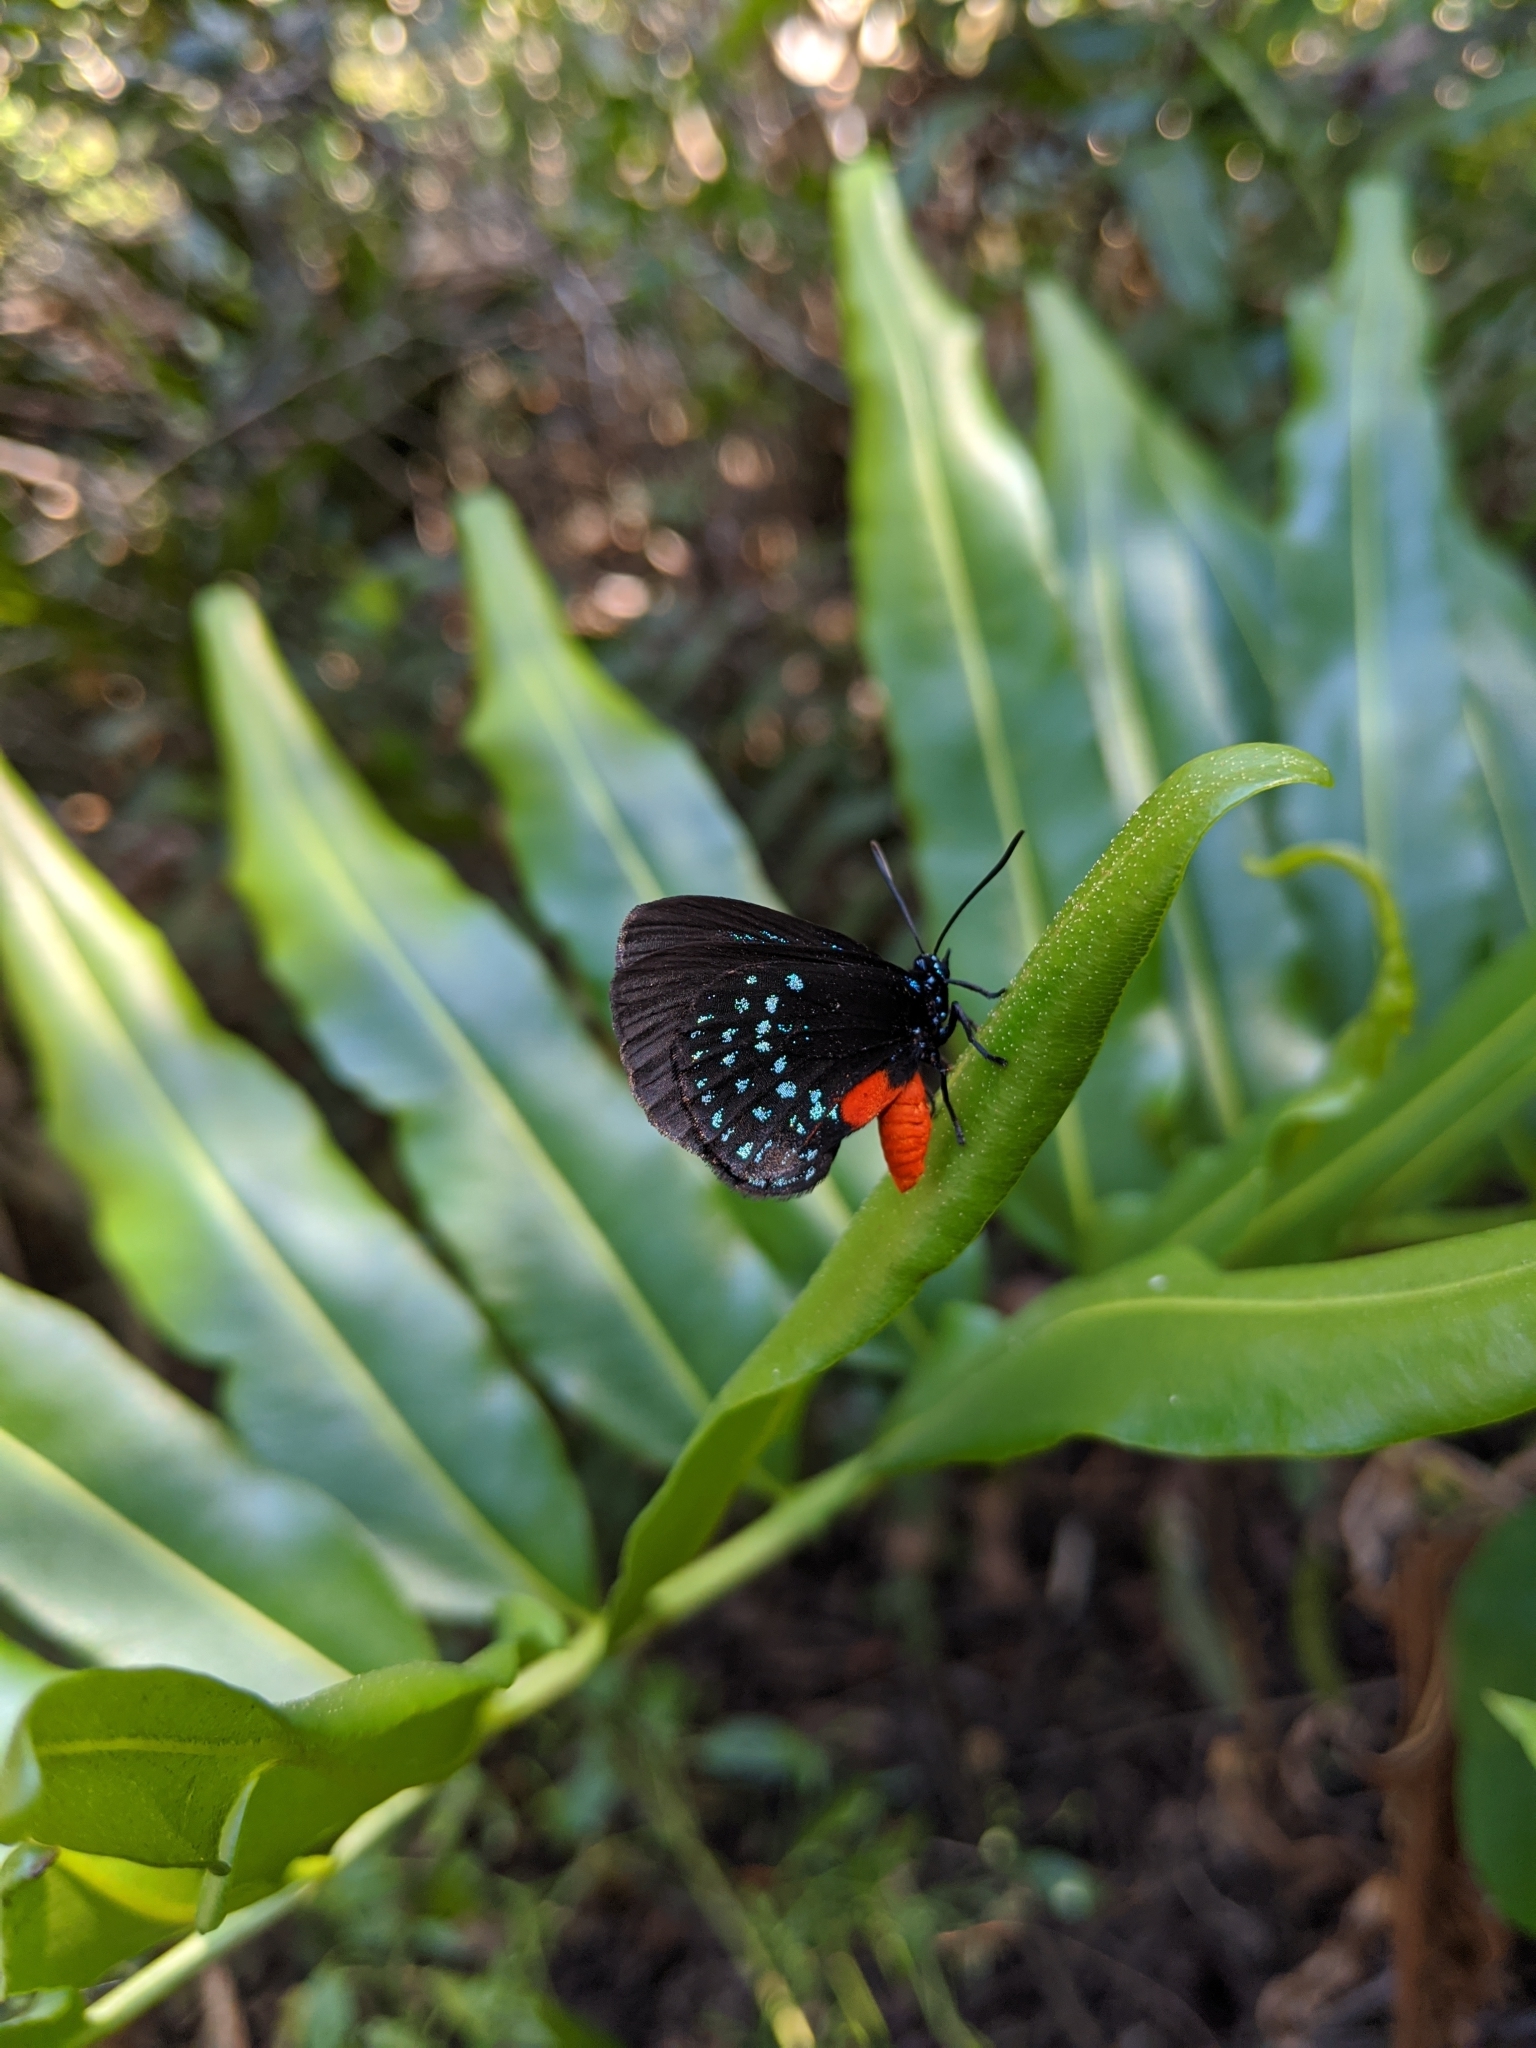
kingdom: Animalia
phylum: Arthropoda
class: Insecta
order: Lepidoptera
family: Lycaenidae
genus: Eumaeus
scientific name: Eumaeus atala
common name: Atala
